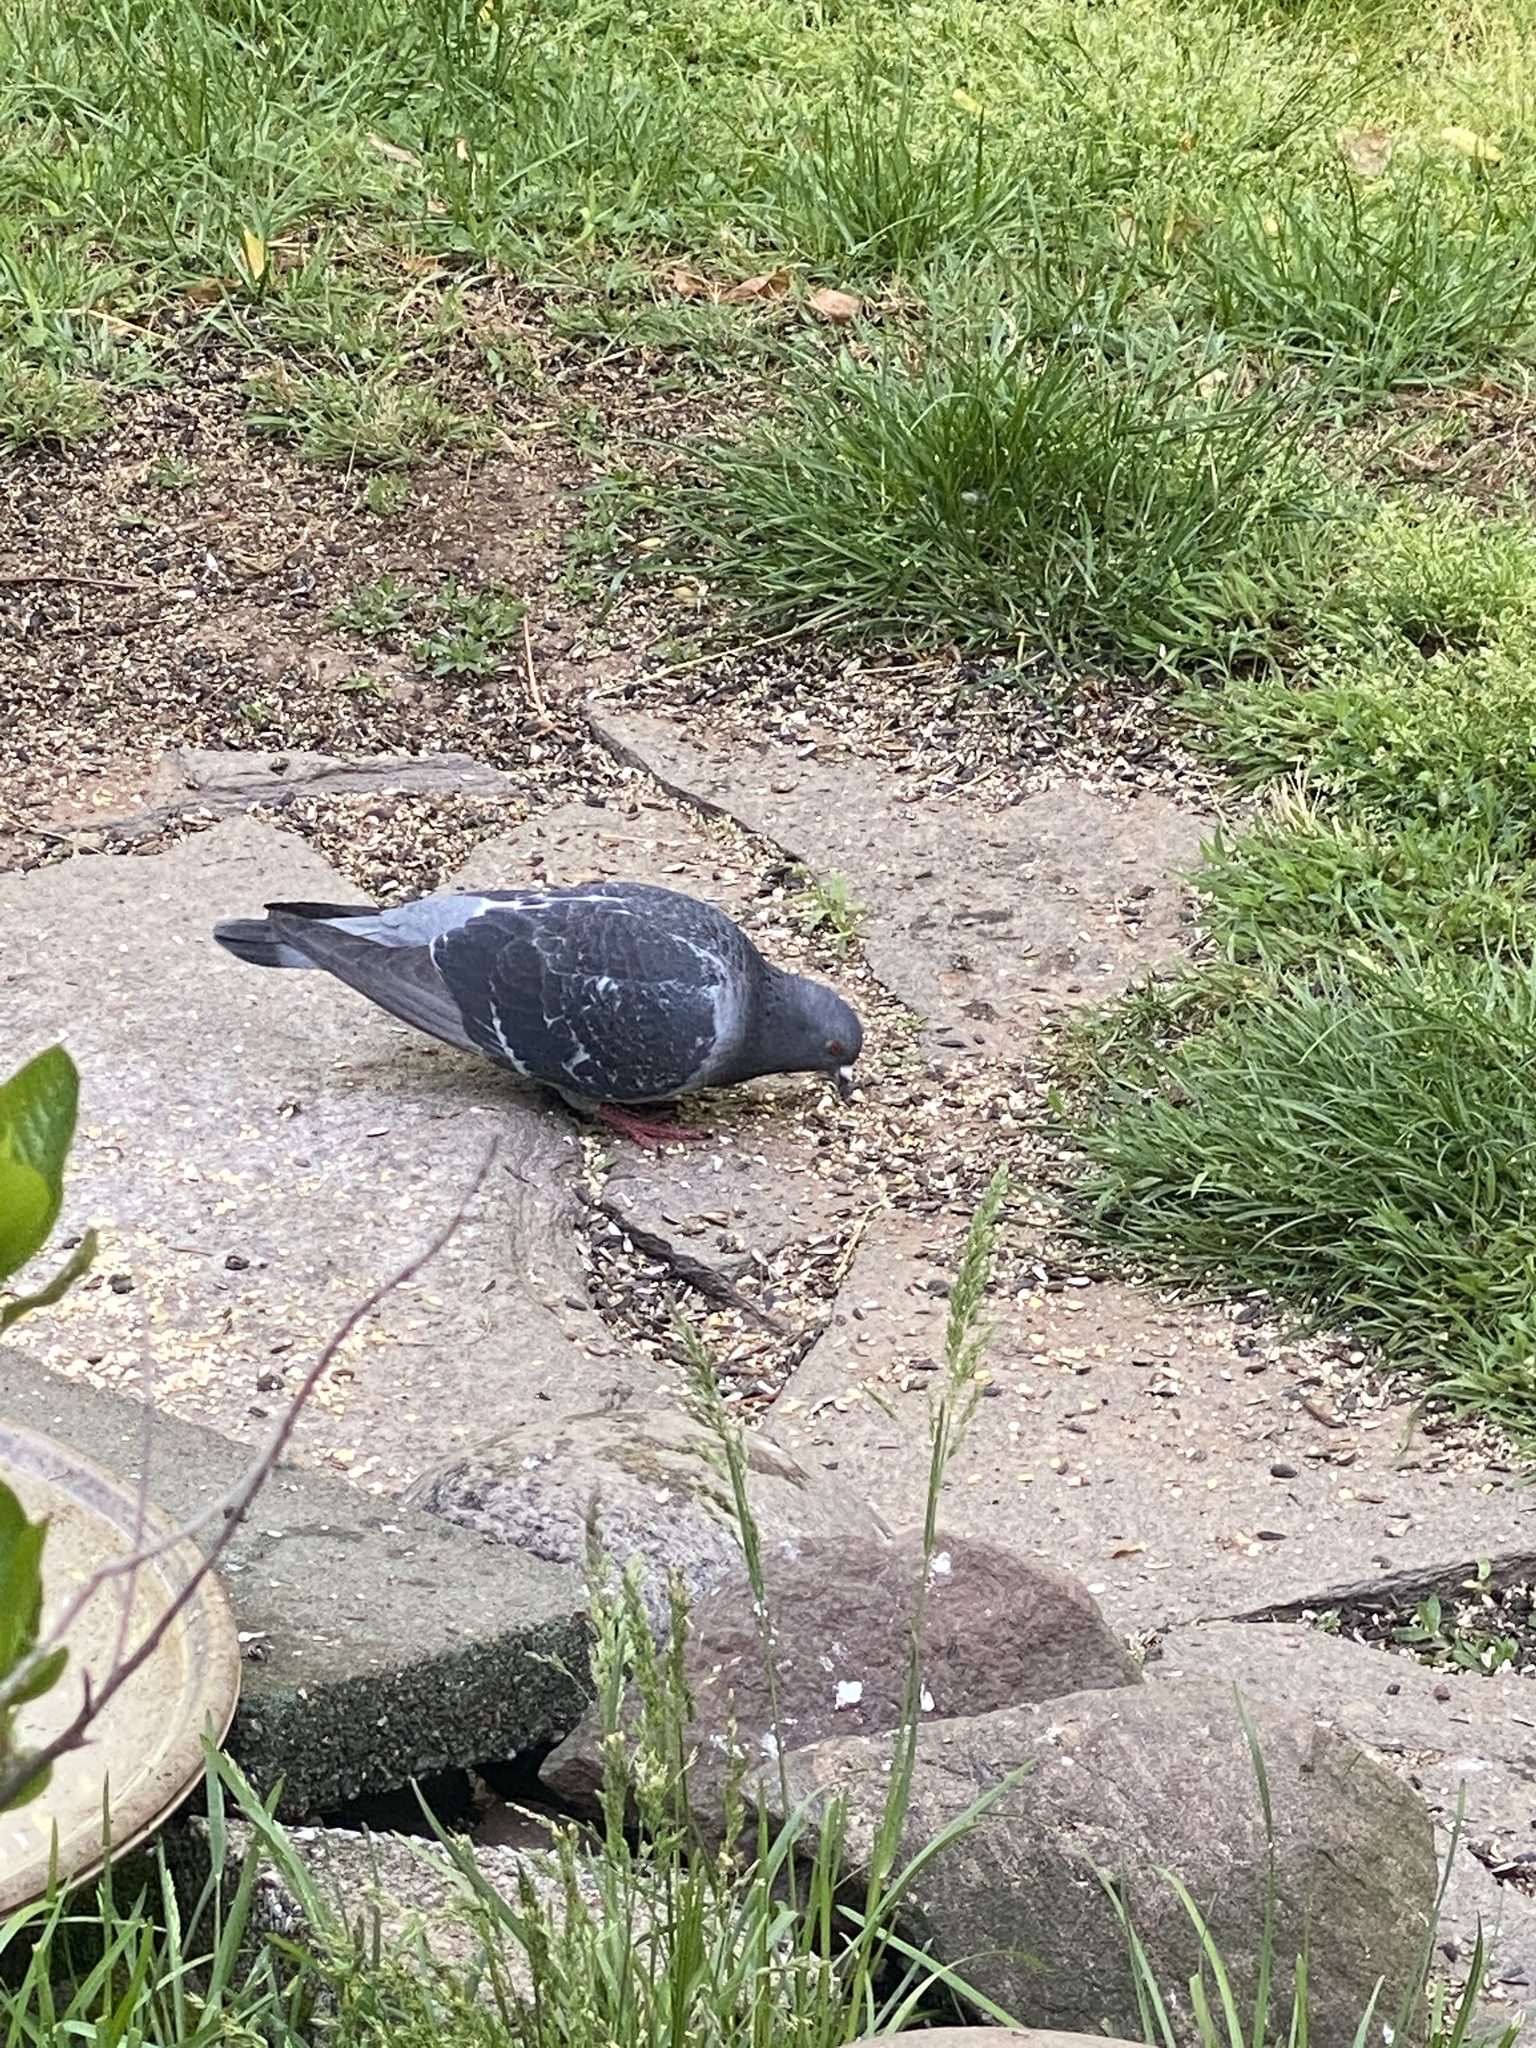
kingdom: Animalia
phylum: Chordata
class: Aves
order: Columbiformes
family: Columbidae
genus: Columba
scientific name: Columba livia
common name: Rock pigeon
